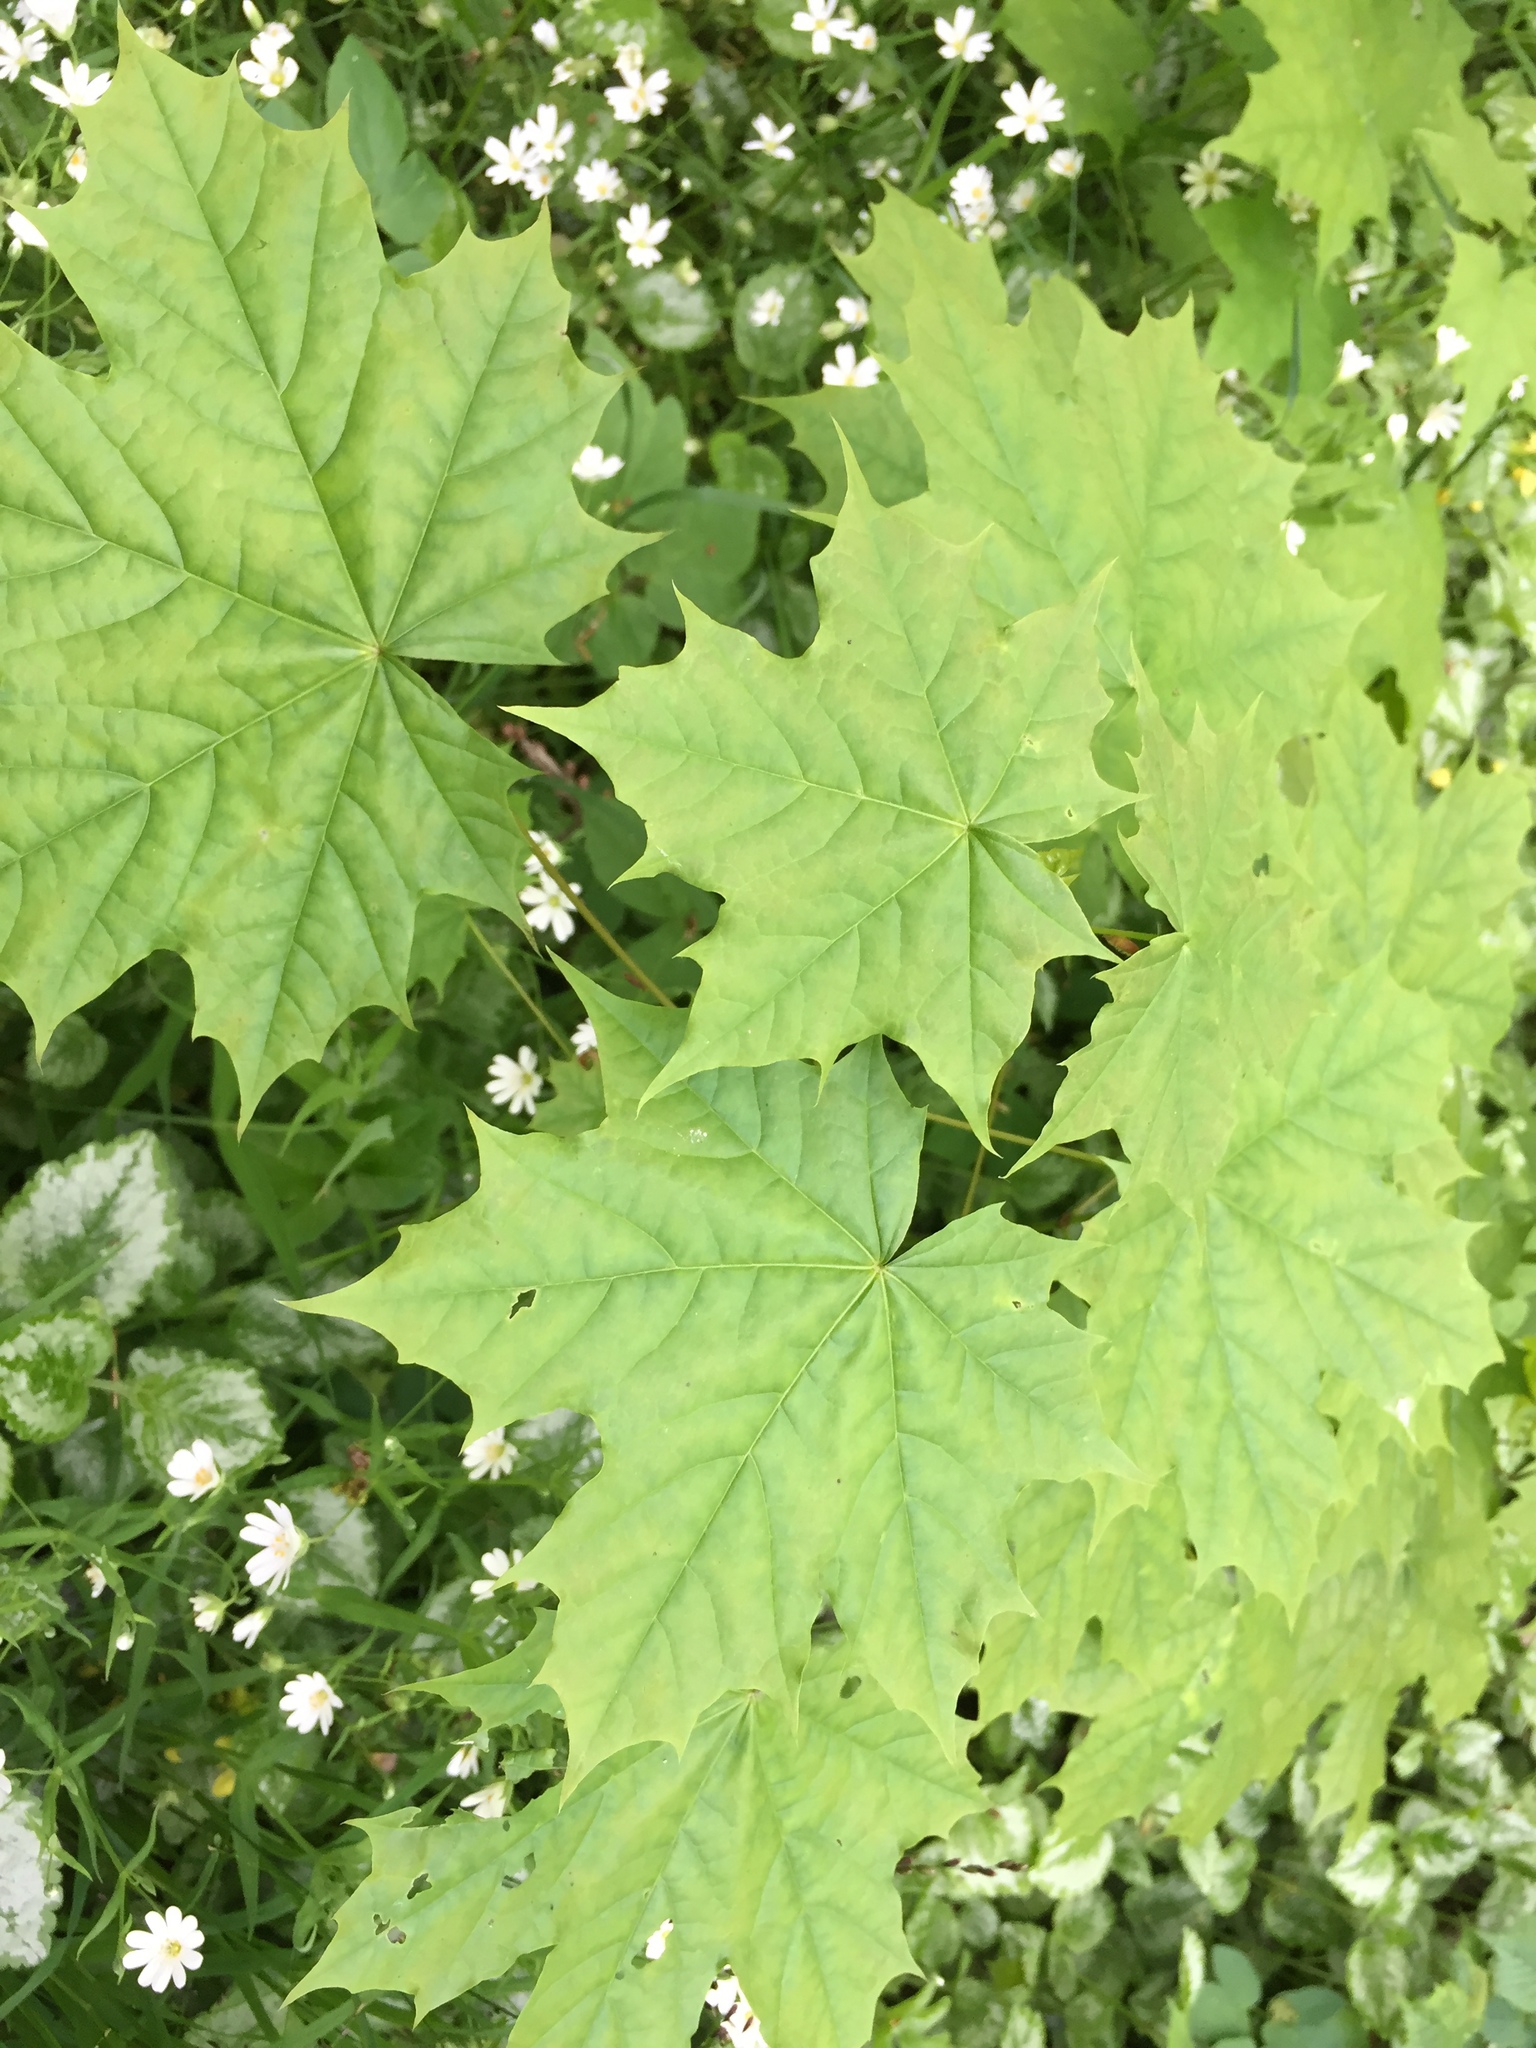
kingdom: Plantae
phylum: Tracheophyta
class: Magnoliopsida
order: Sapindales
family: Sapindaceae
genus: Acer
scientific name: Acer platanoides
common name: Norway maple
